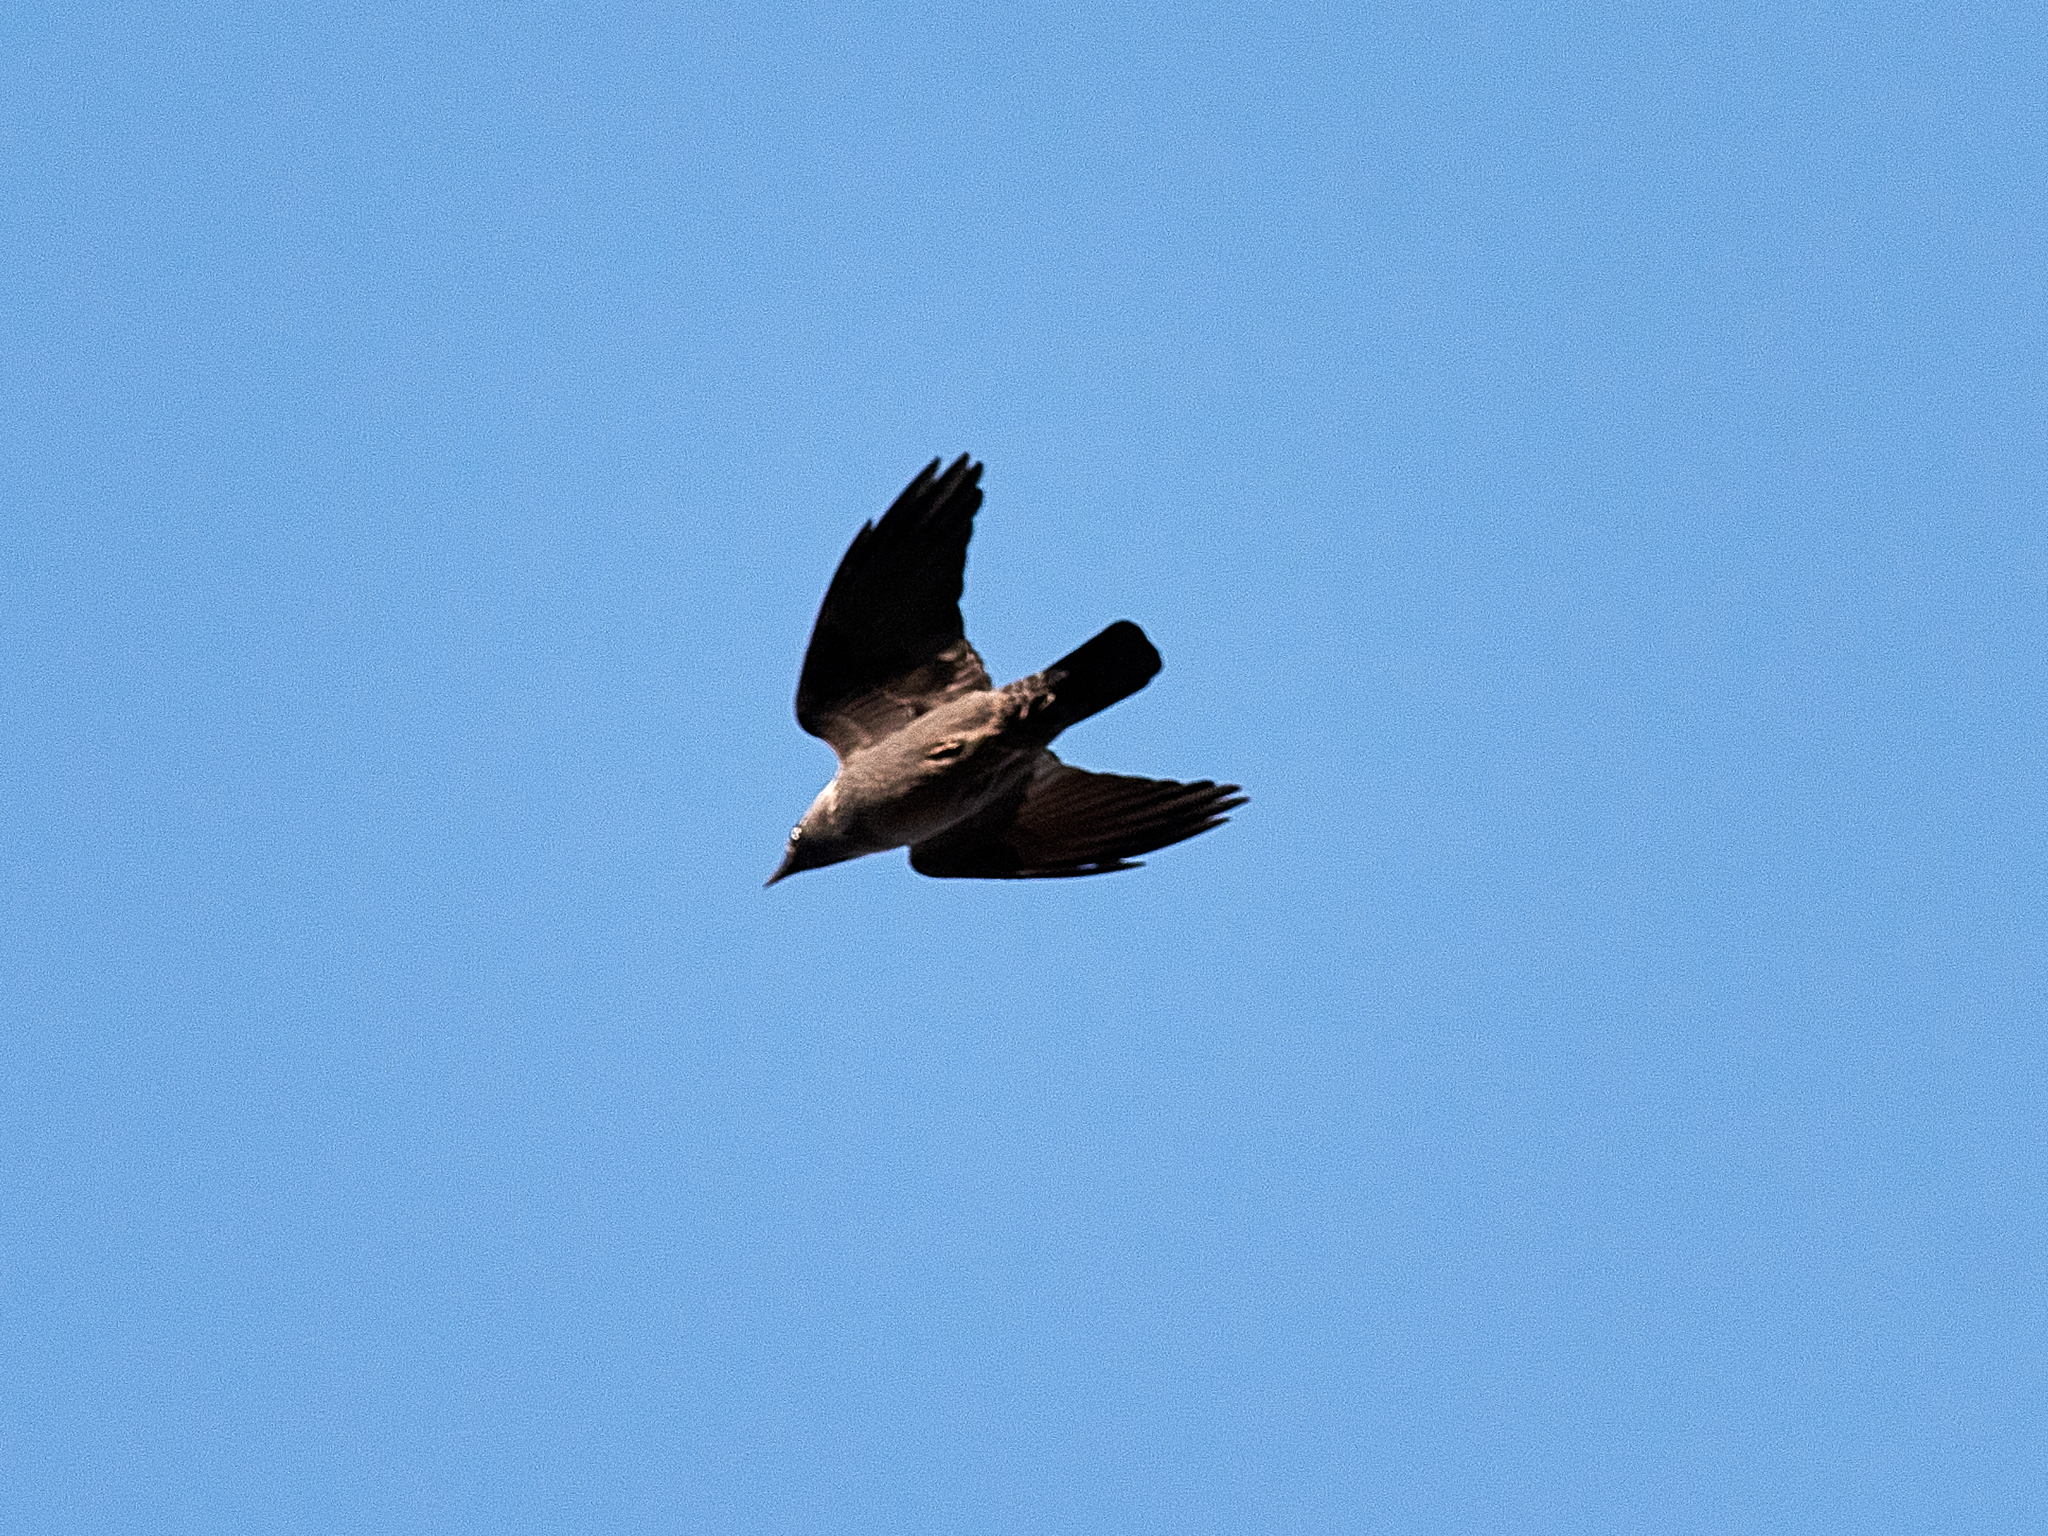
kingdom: Animalia
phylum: Chordata
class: Aves
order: Passeriformes
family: Corvidae
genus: Coloeus
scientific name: Coloeus monedula
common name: Western jackdaw
